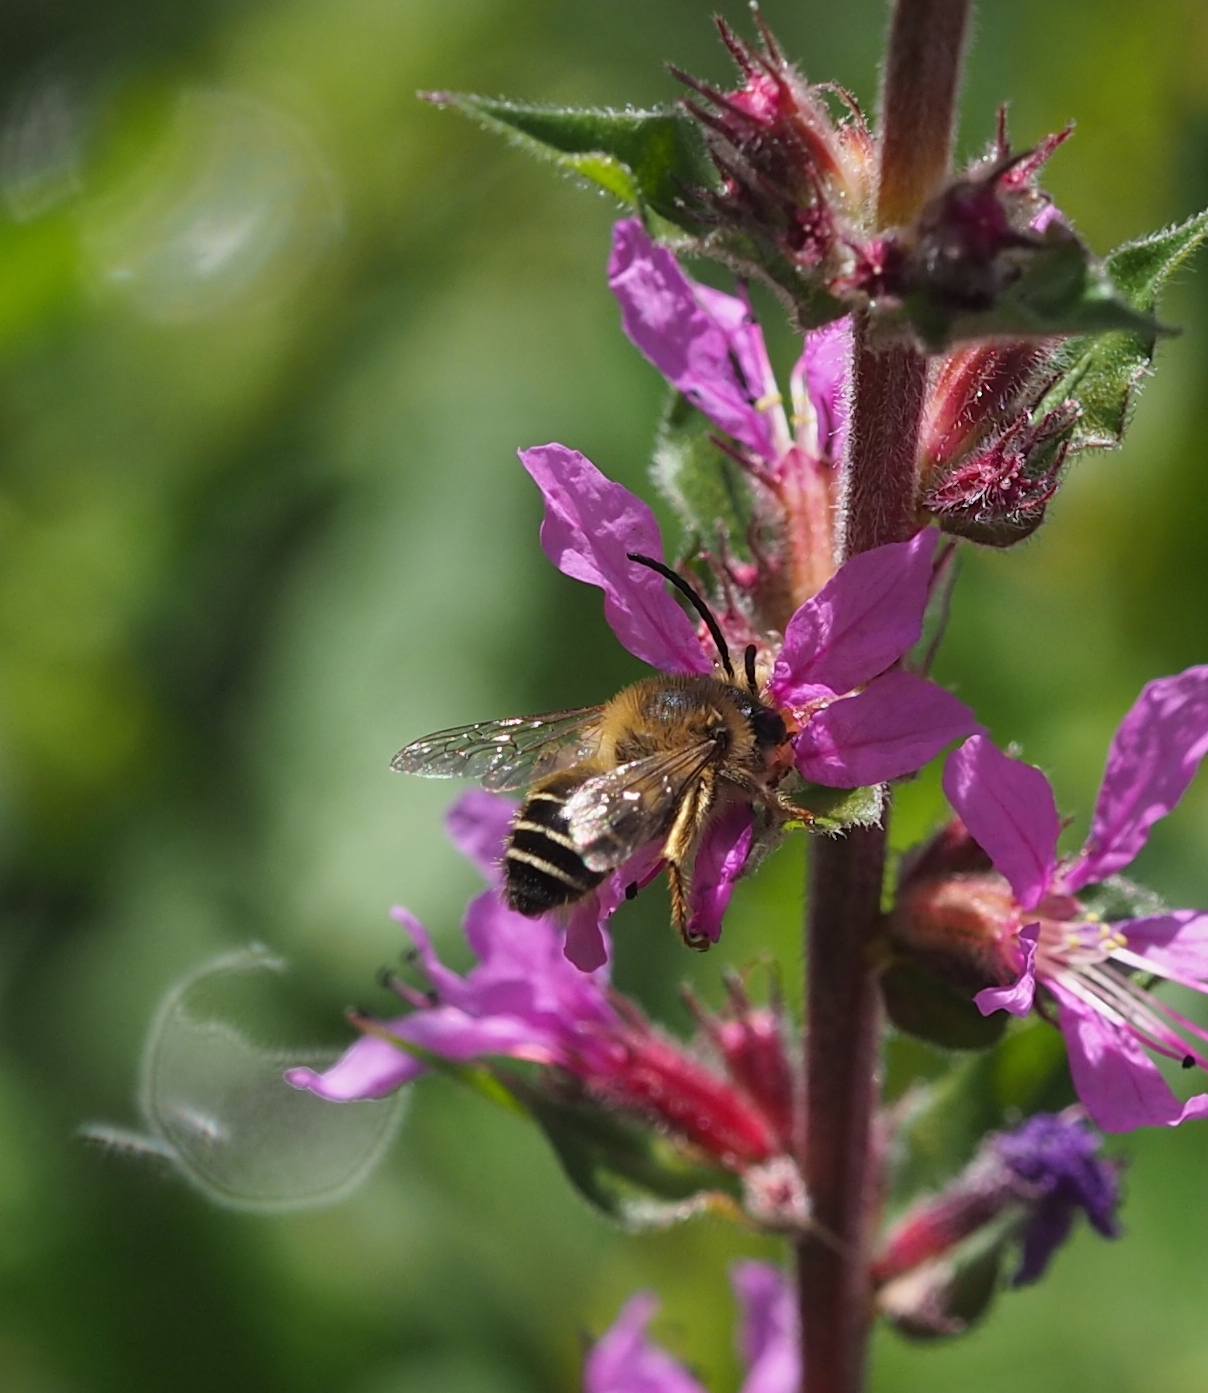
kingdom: Animalia
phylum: Arthropoda
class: Insecta
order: Hymenoptera
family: Melittidae
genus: Melitta
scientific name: Melitta nigricans
